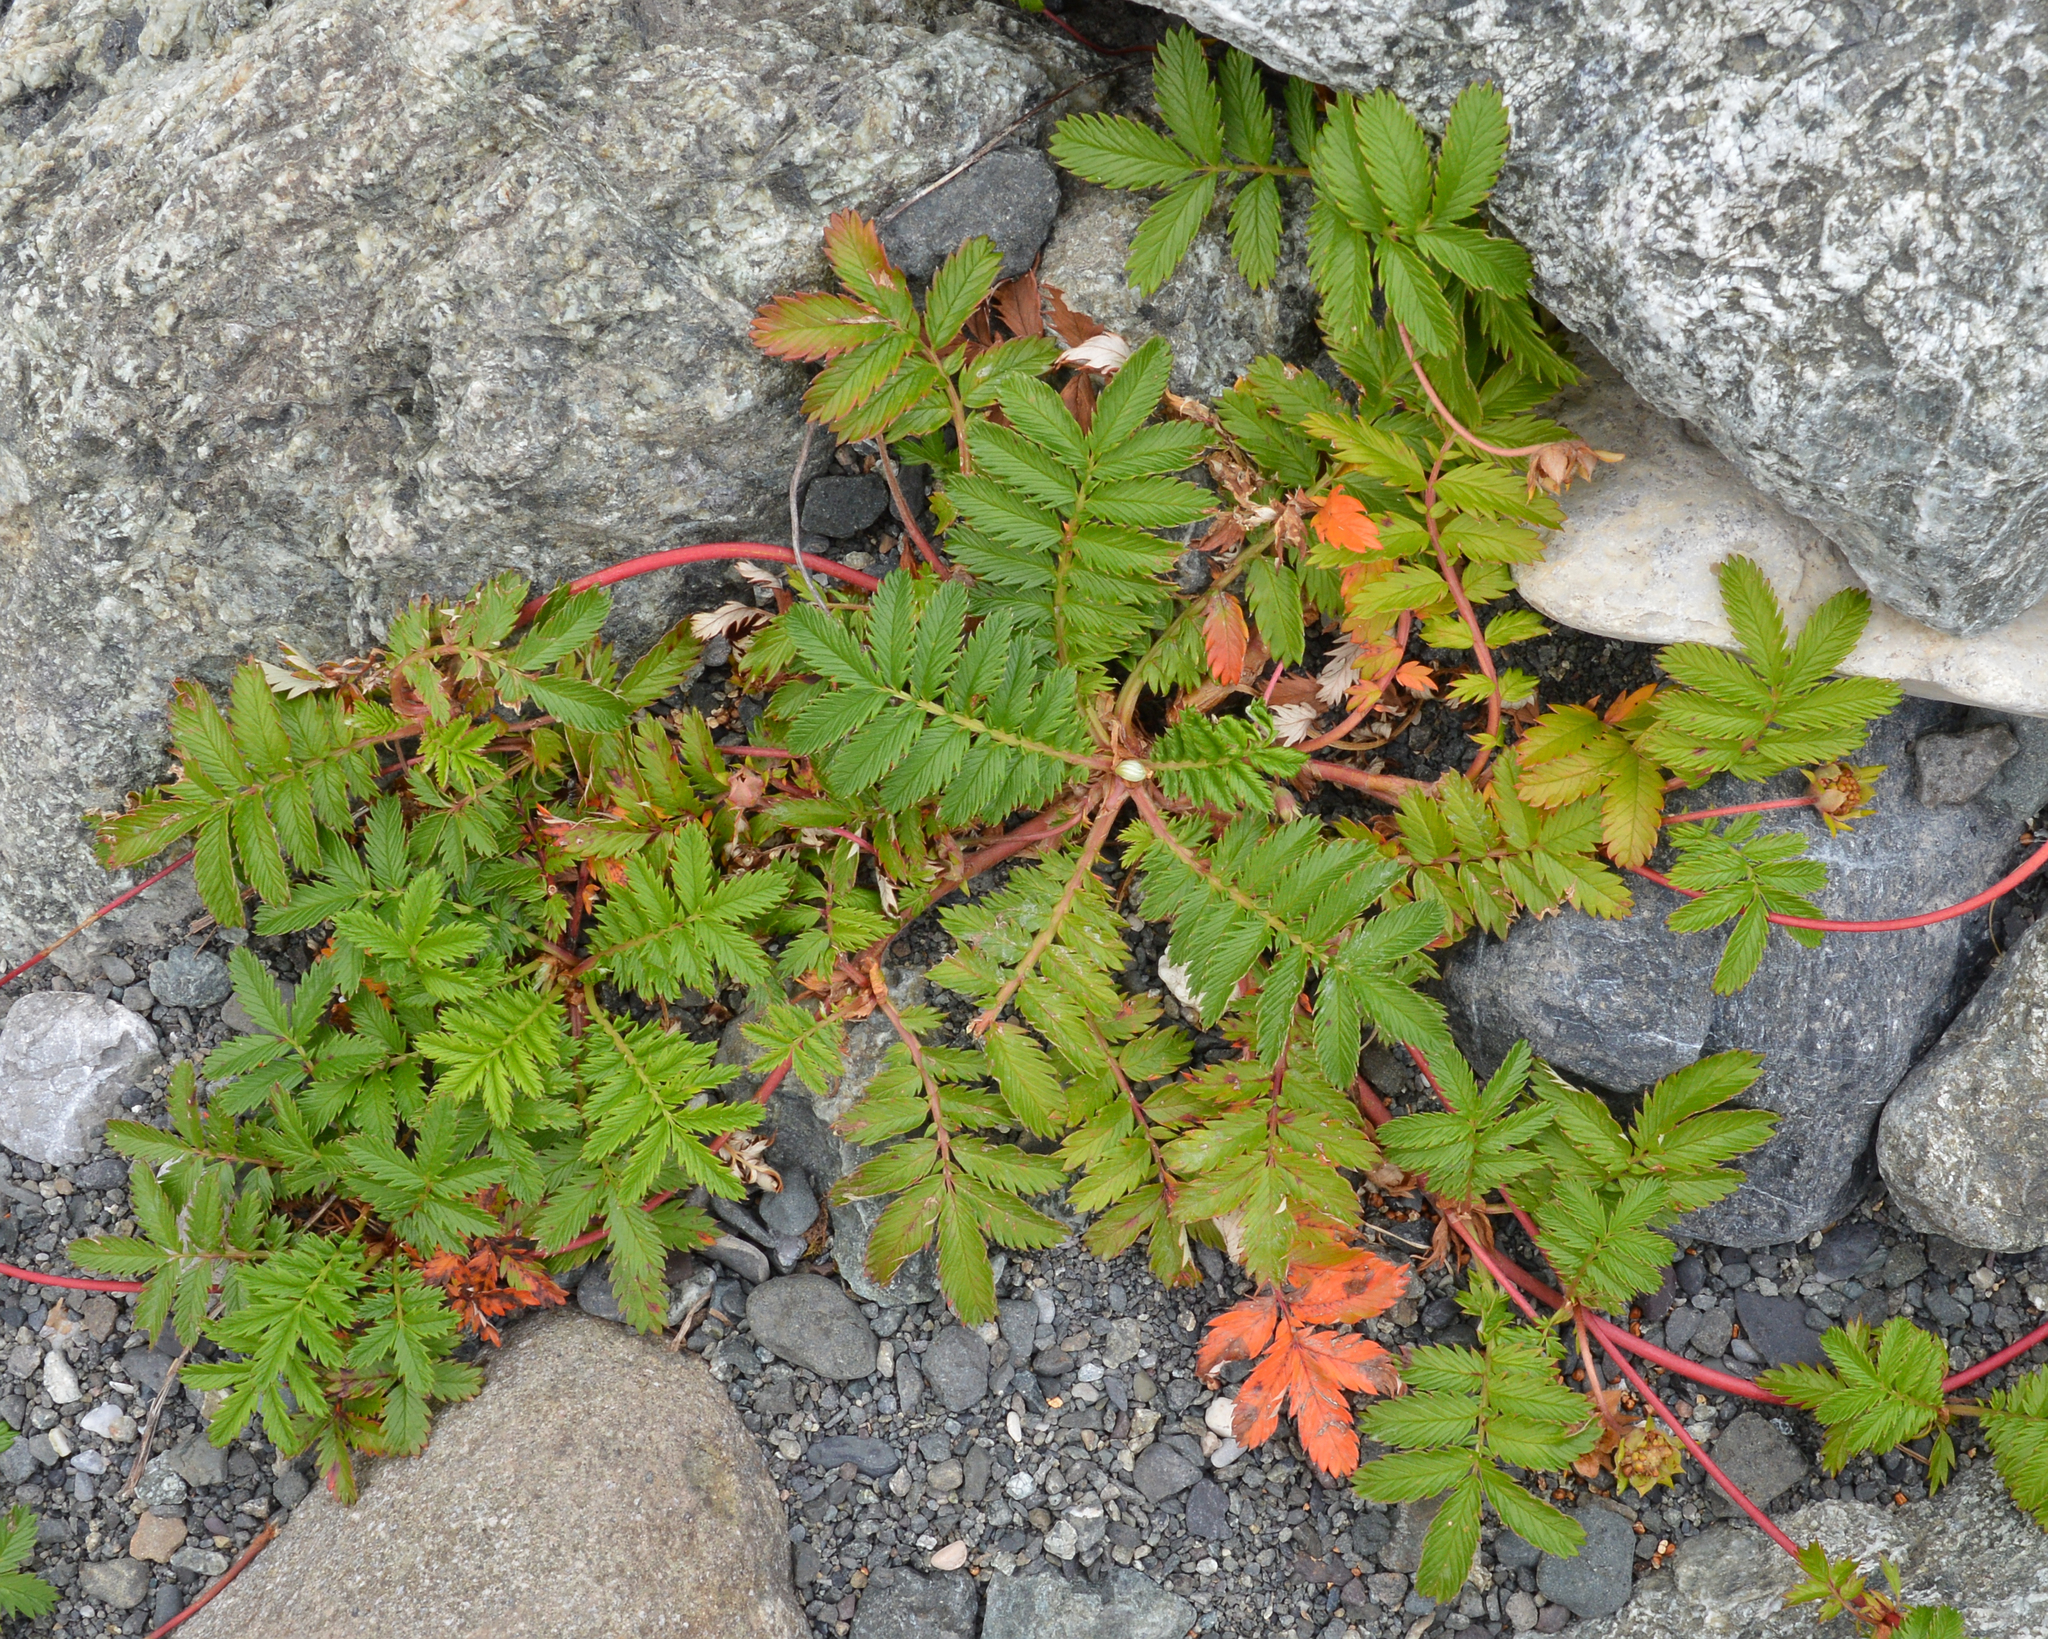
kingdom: Plantae
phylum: Tracheophyta
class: Magnoliopsida
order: Rosales
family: Rosaceae
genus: Argentina
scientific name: Argentina anserina
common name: Common silverweed
